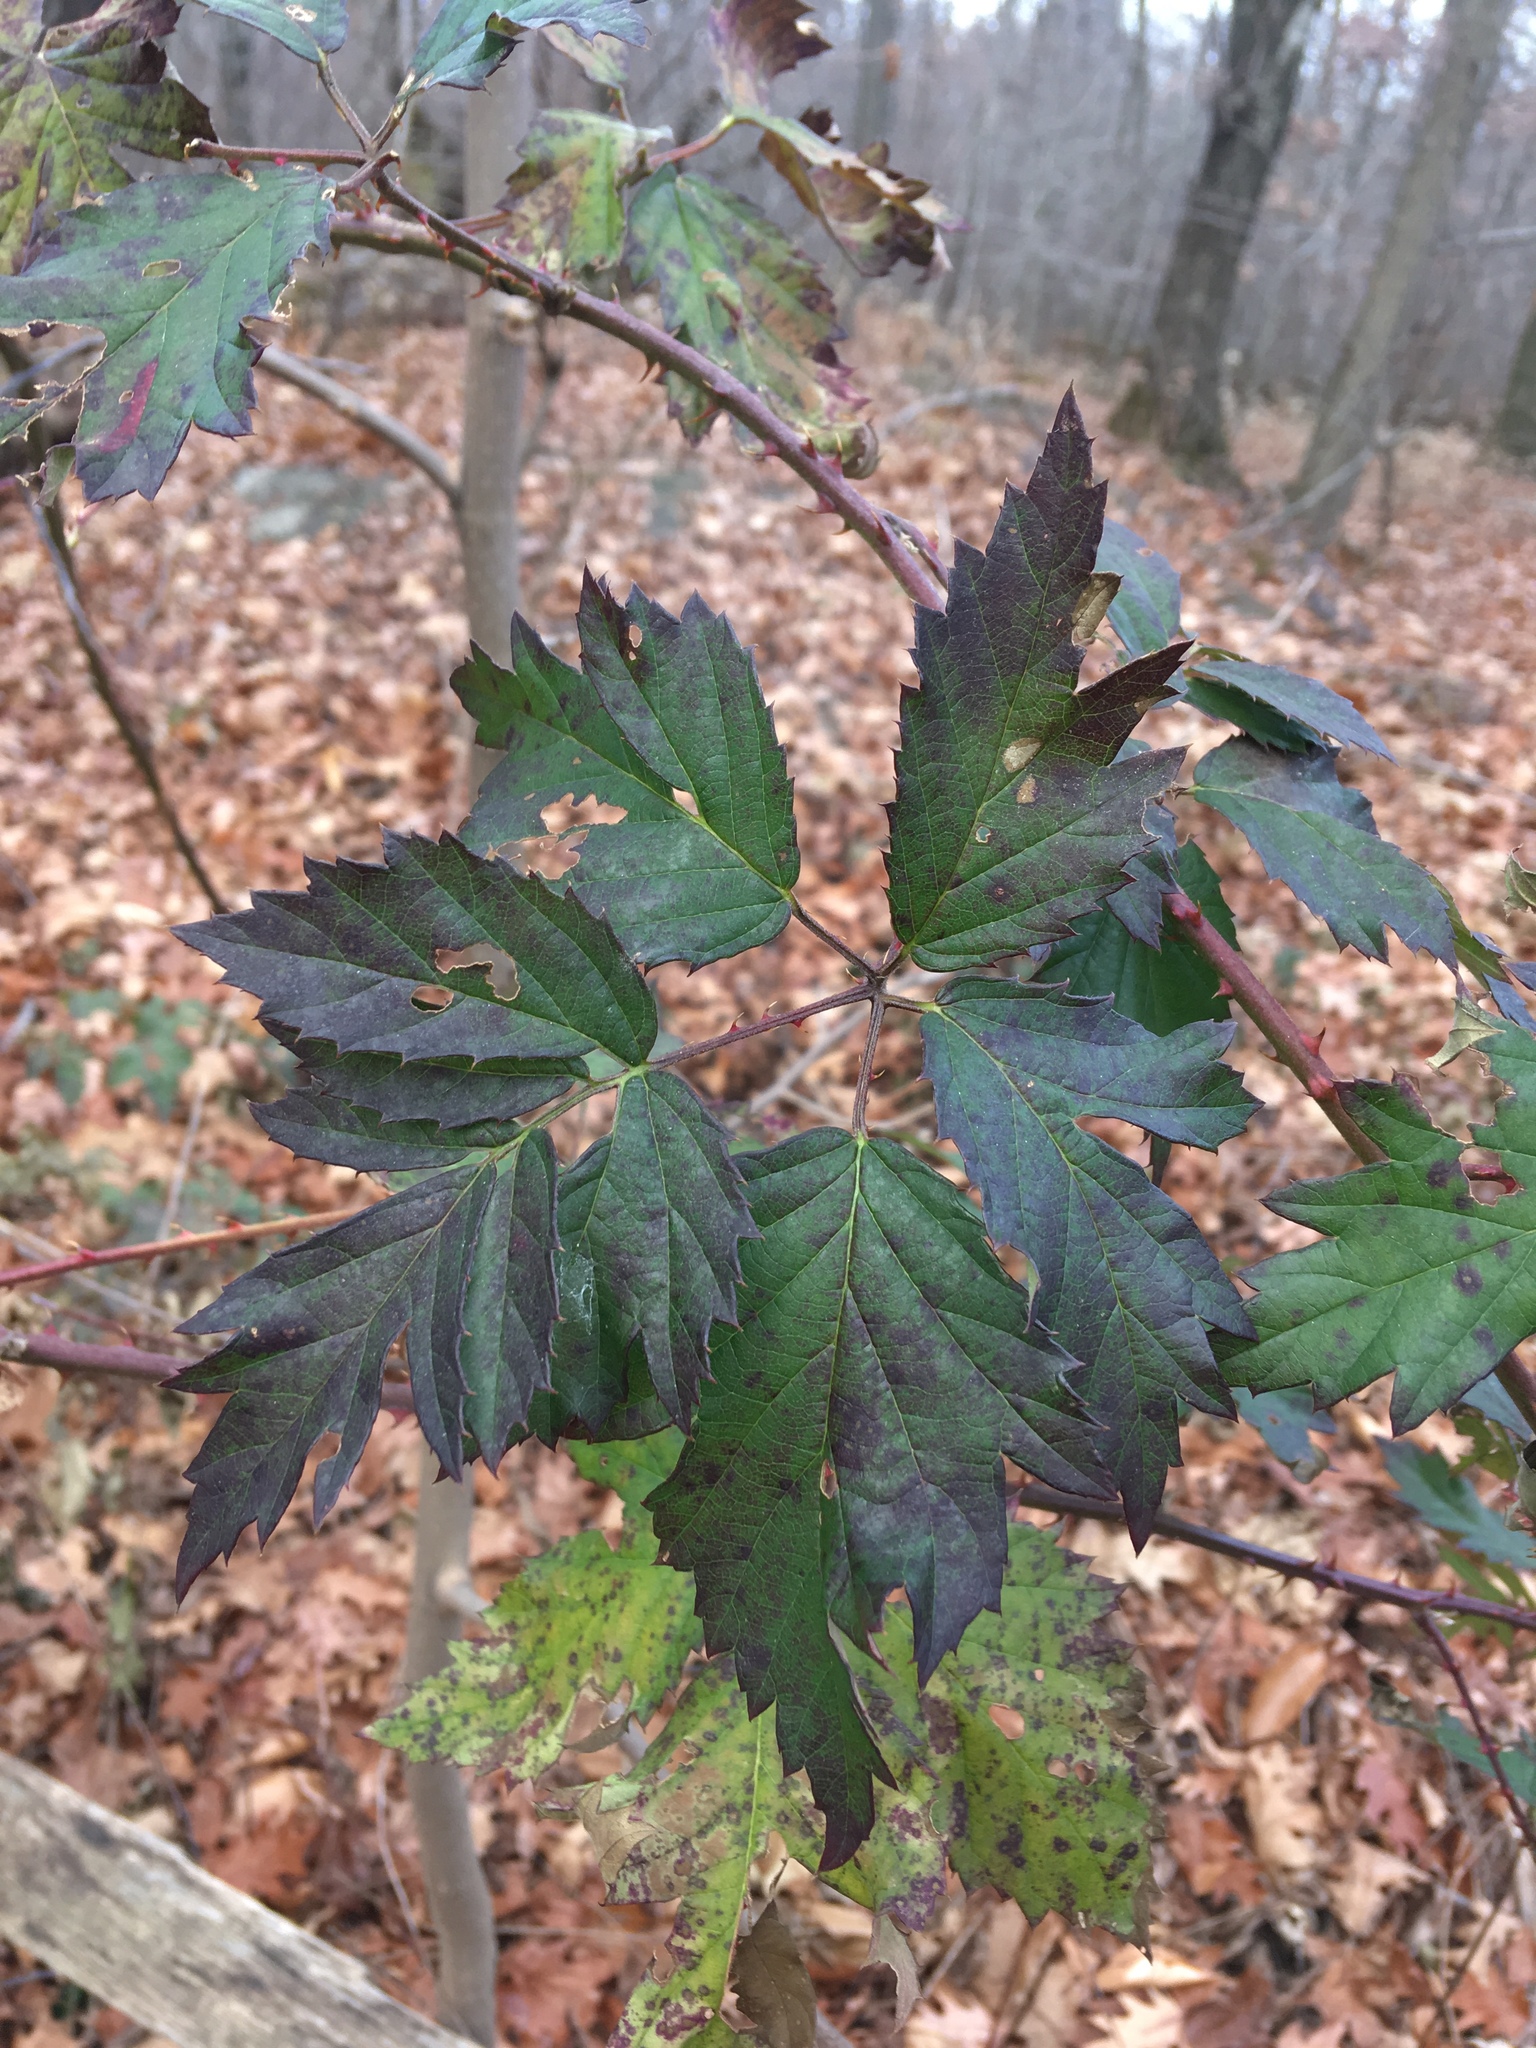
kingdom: Plantae
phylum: Tracheophyta
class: Magnoliopsida
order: Rosales
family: Rosaceae
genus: Rubus
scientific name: Rubus laciniatus
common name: Evergreen blackberry
